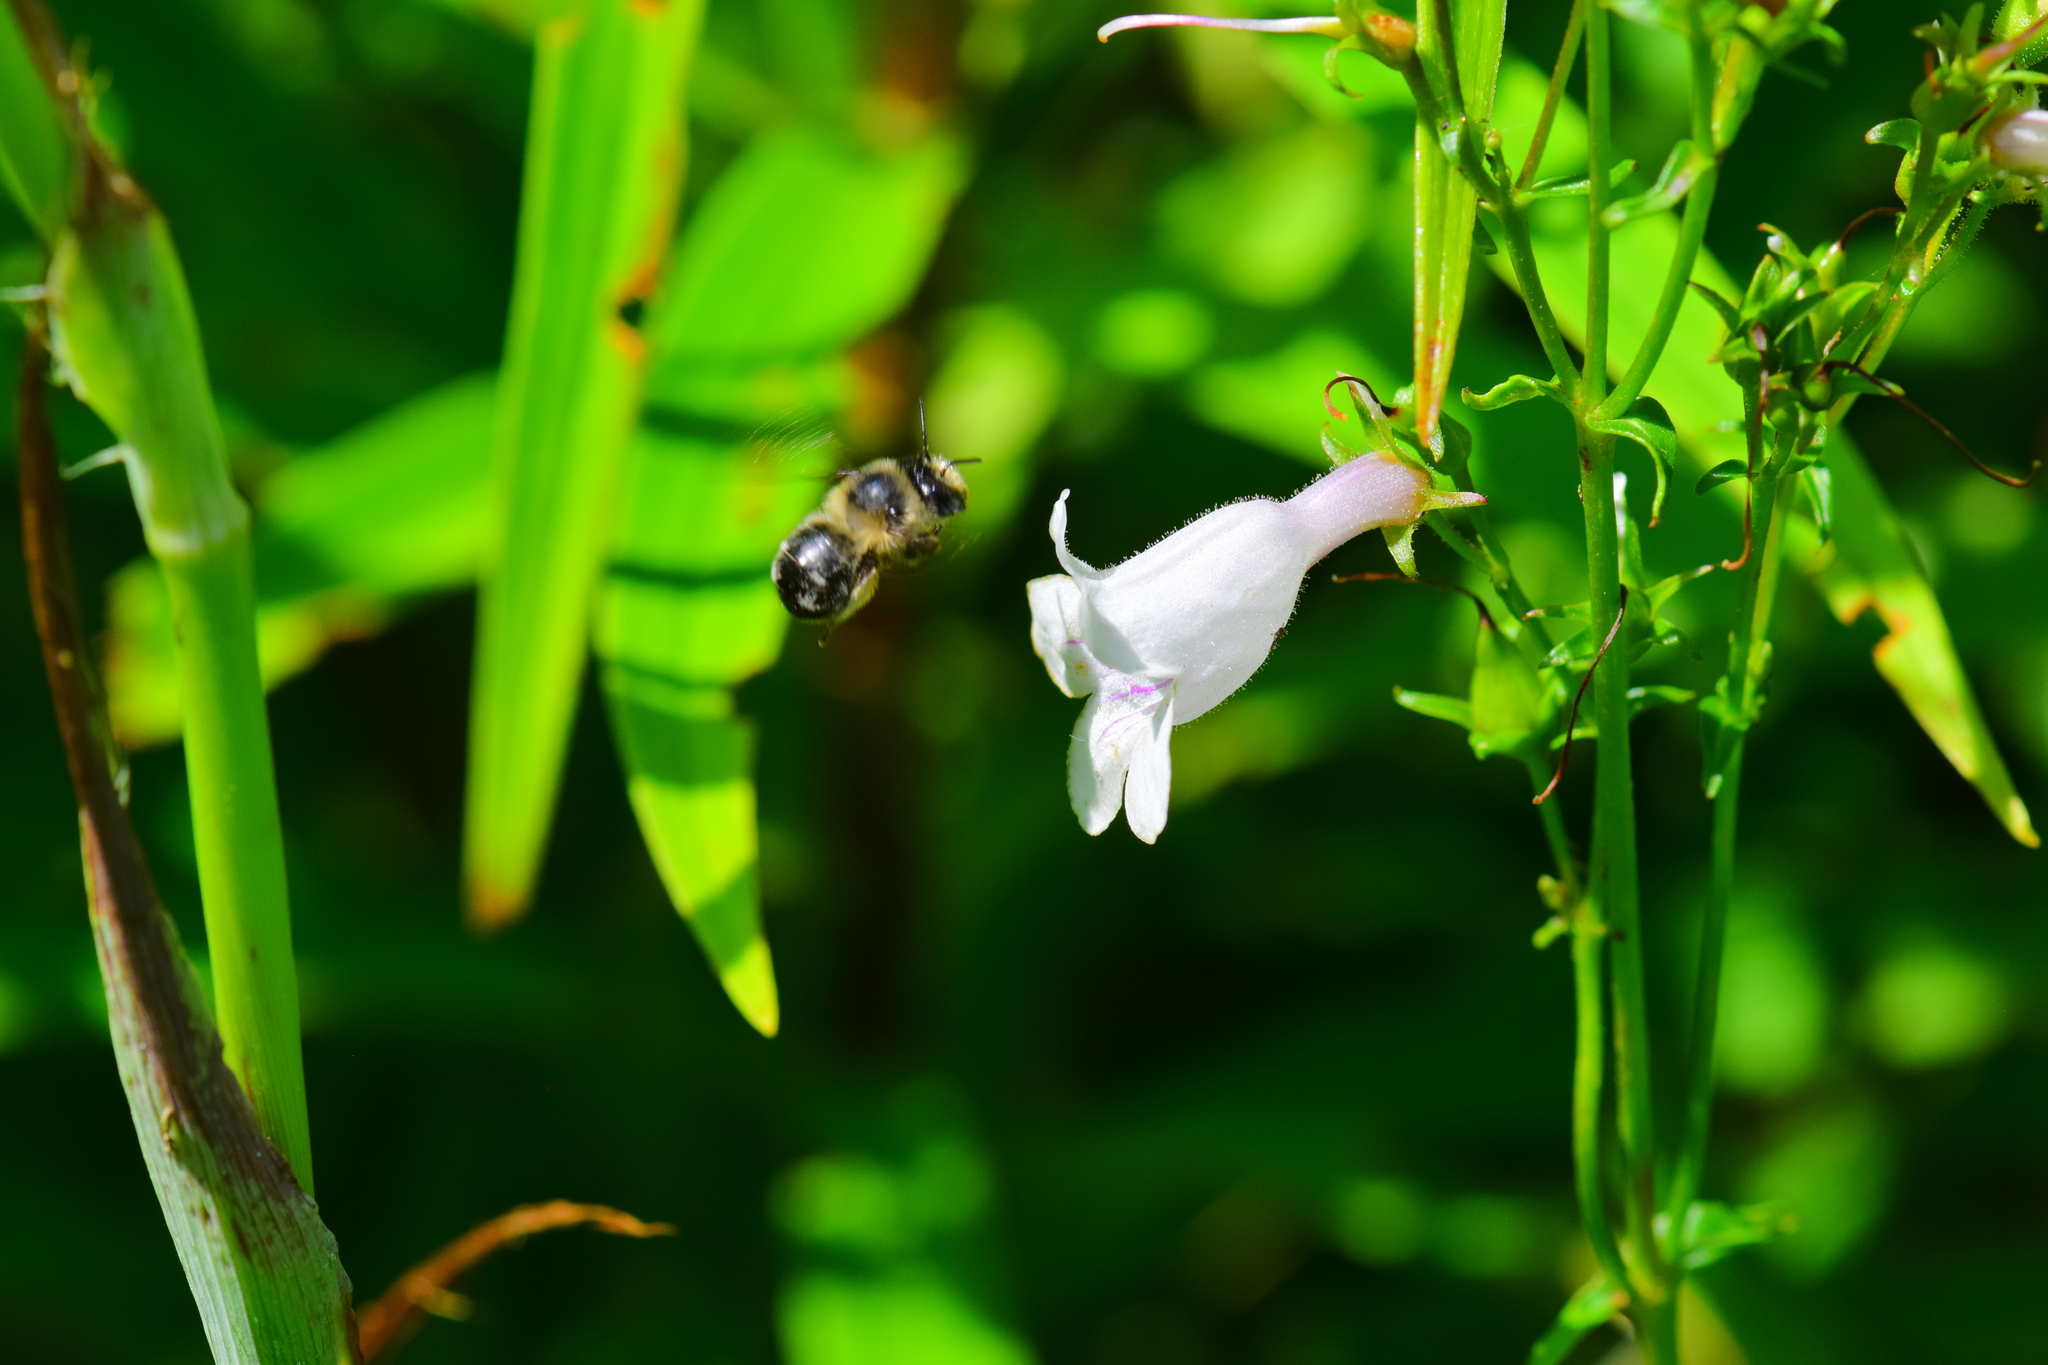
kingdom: Animalia
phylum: Arthropoda
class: Insecta
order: Hymenoptera
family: Apidae
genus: Anthophora
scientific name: Anthophora terminalis
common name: Orange-tipped wood-digger bee
